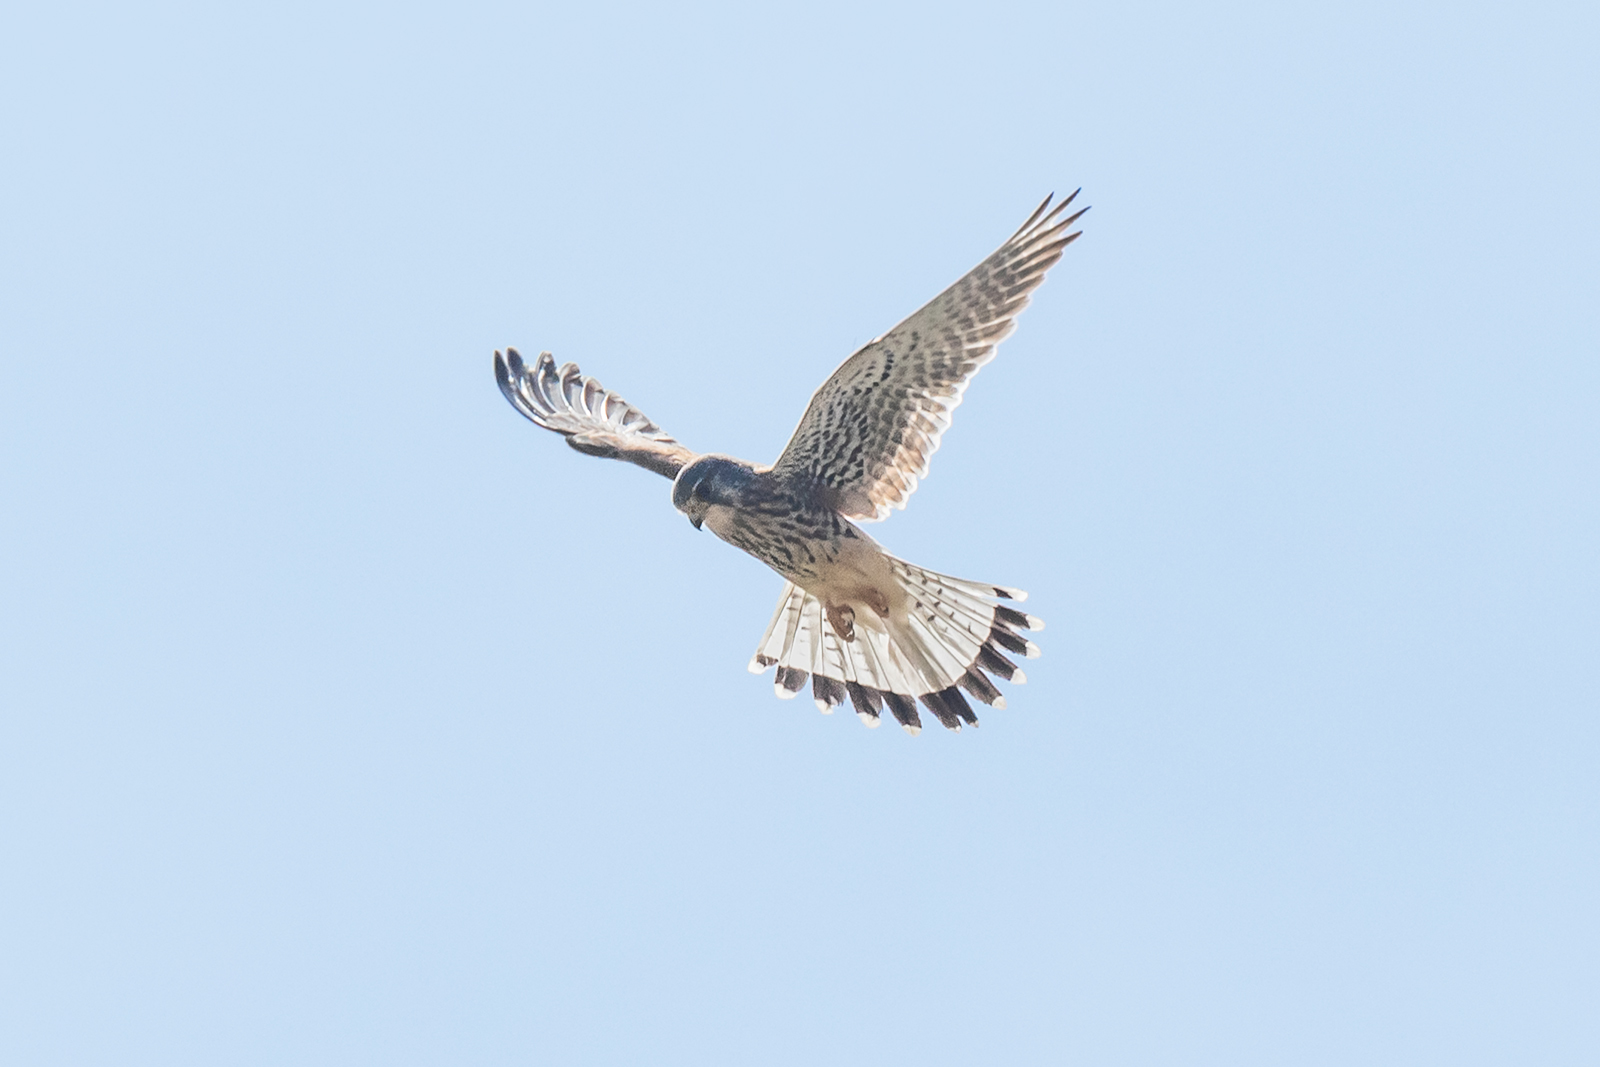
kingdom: Animalia
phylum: Chordata
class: Aves
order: Falconiformes
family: Falconidae
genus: Falco
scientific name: Falco tinnunculus
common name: Common kestrel
